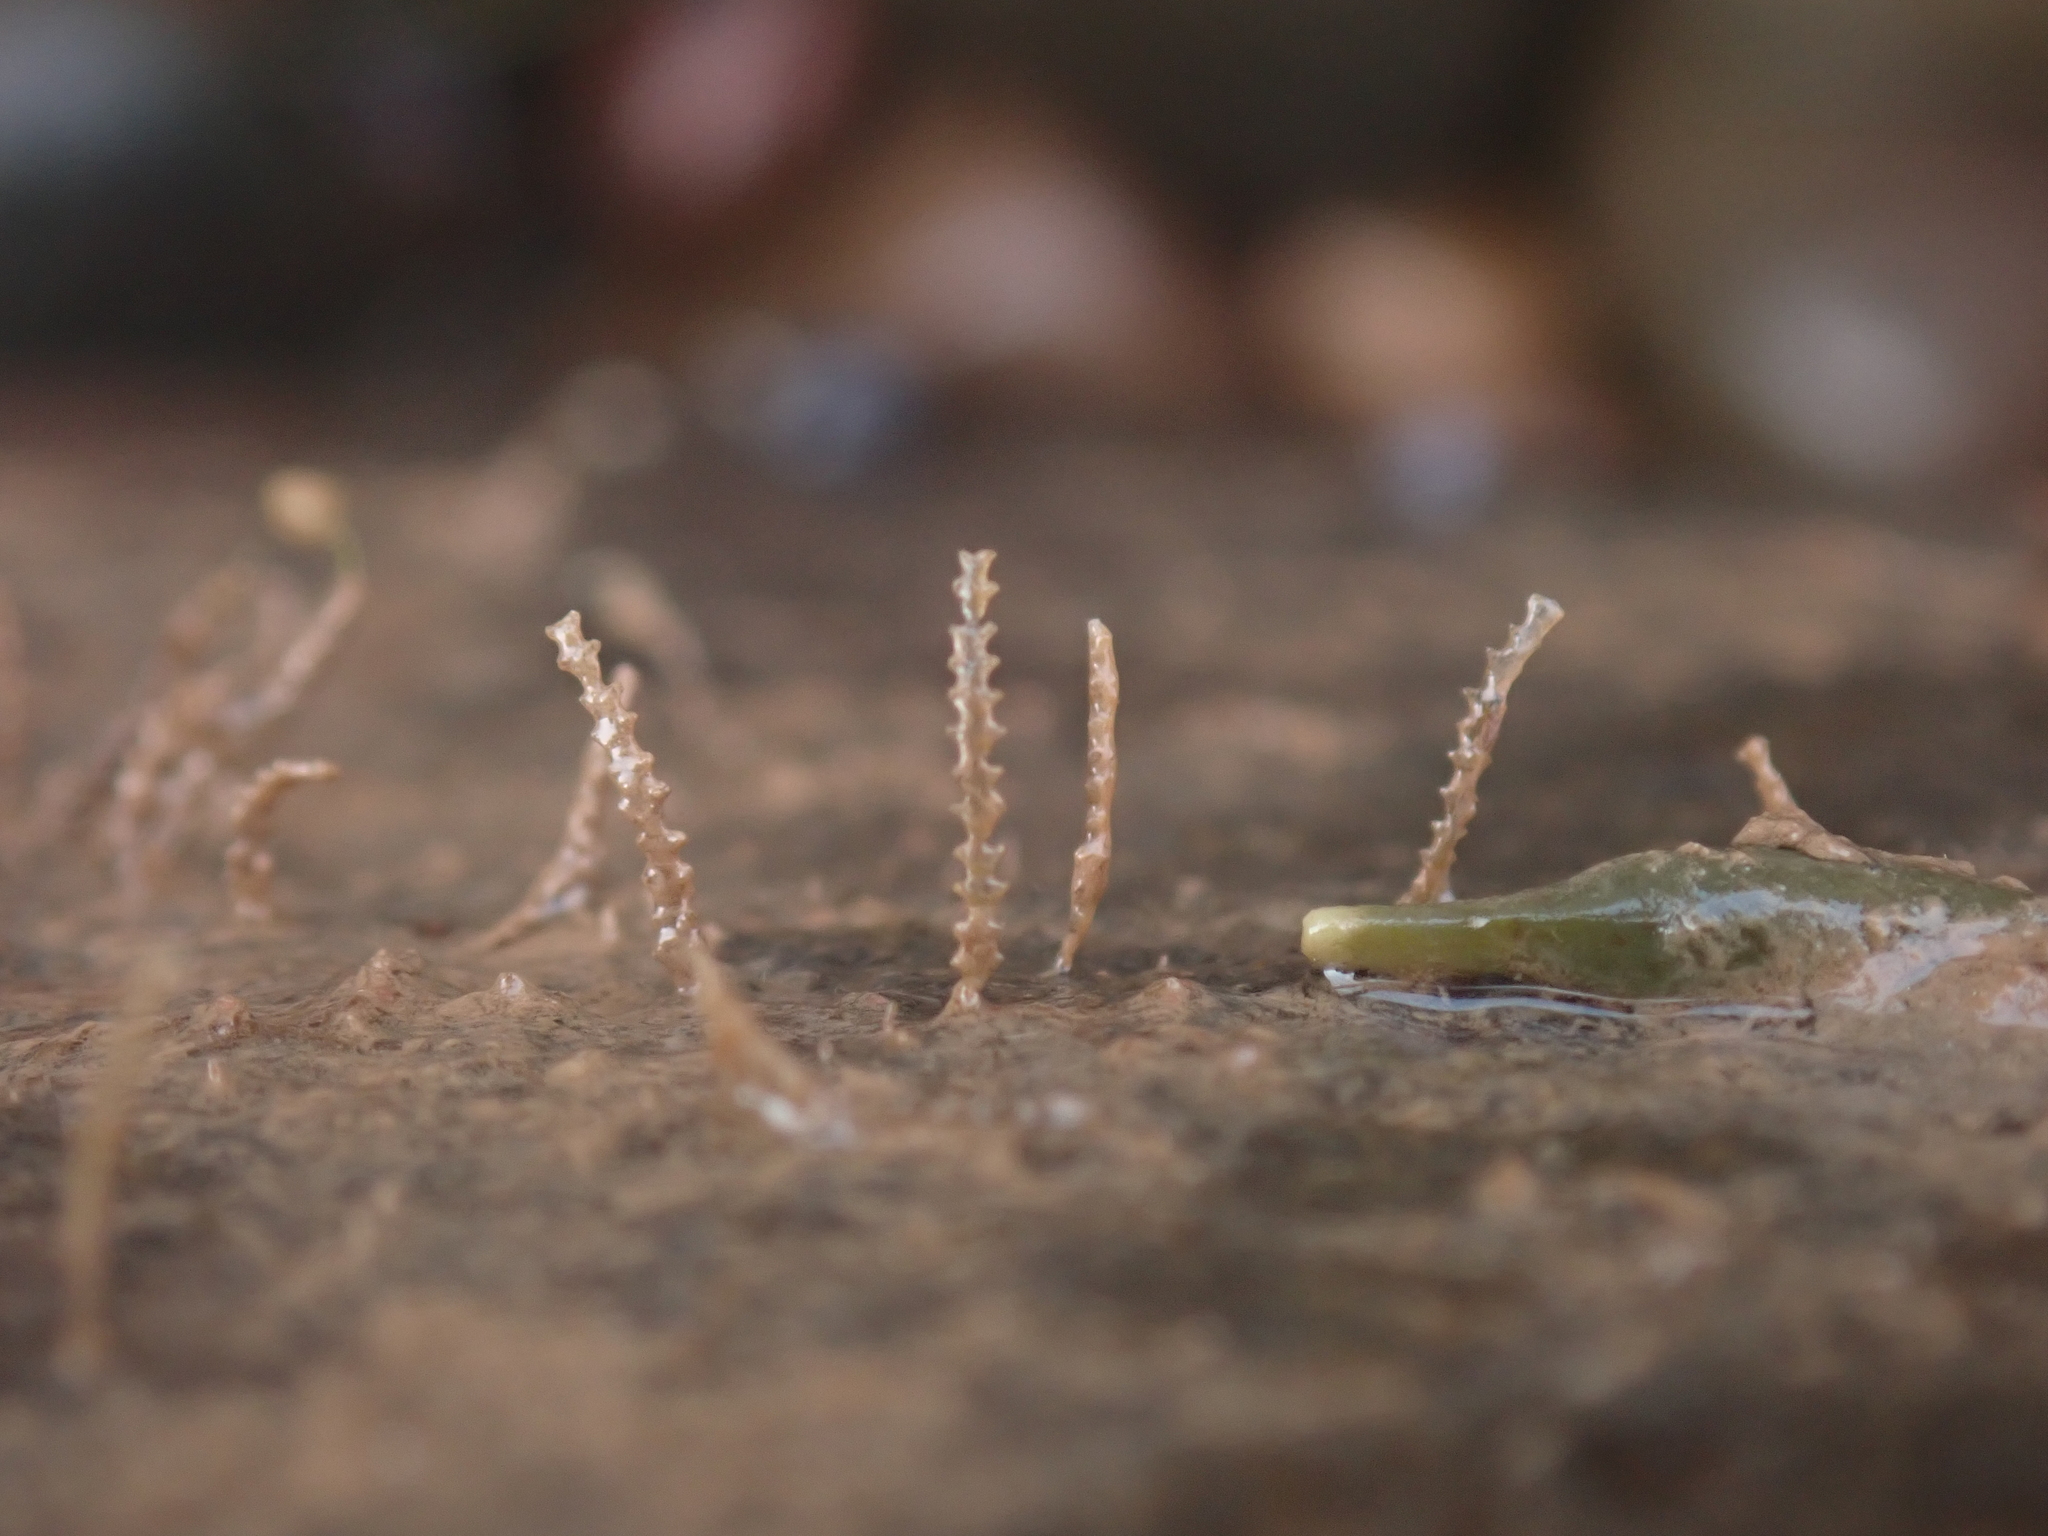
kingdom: Animalia
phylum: Cnidaria
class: Hydrozoa
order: Leptothecata
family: Sertulariidae
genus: Dynamena
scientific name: Dynamena pumila
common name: Sea oak
